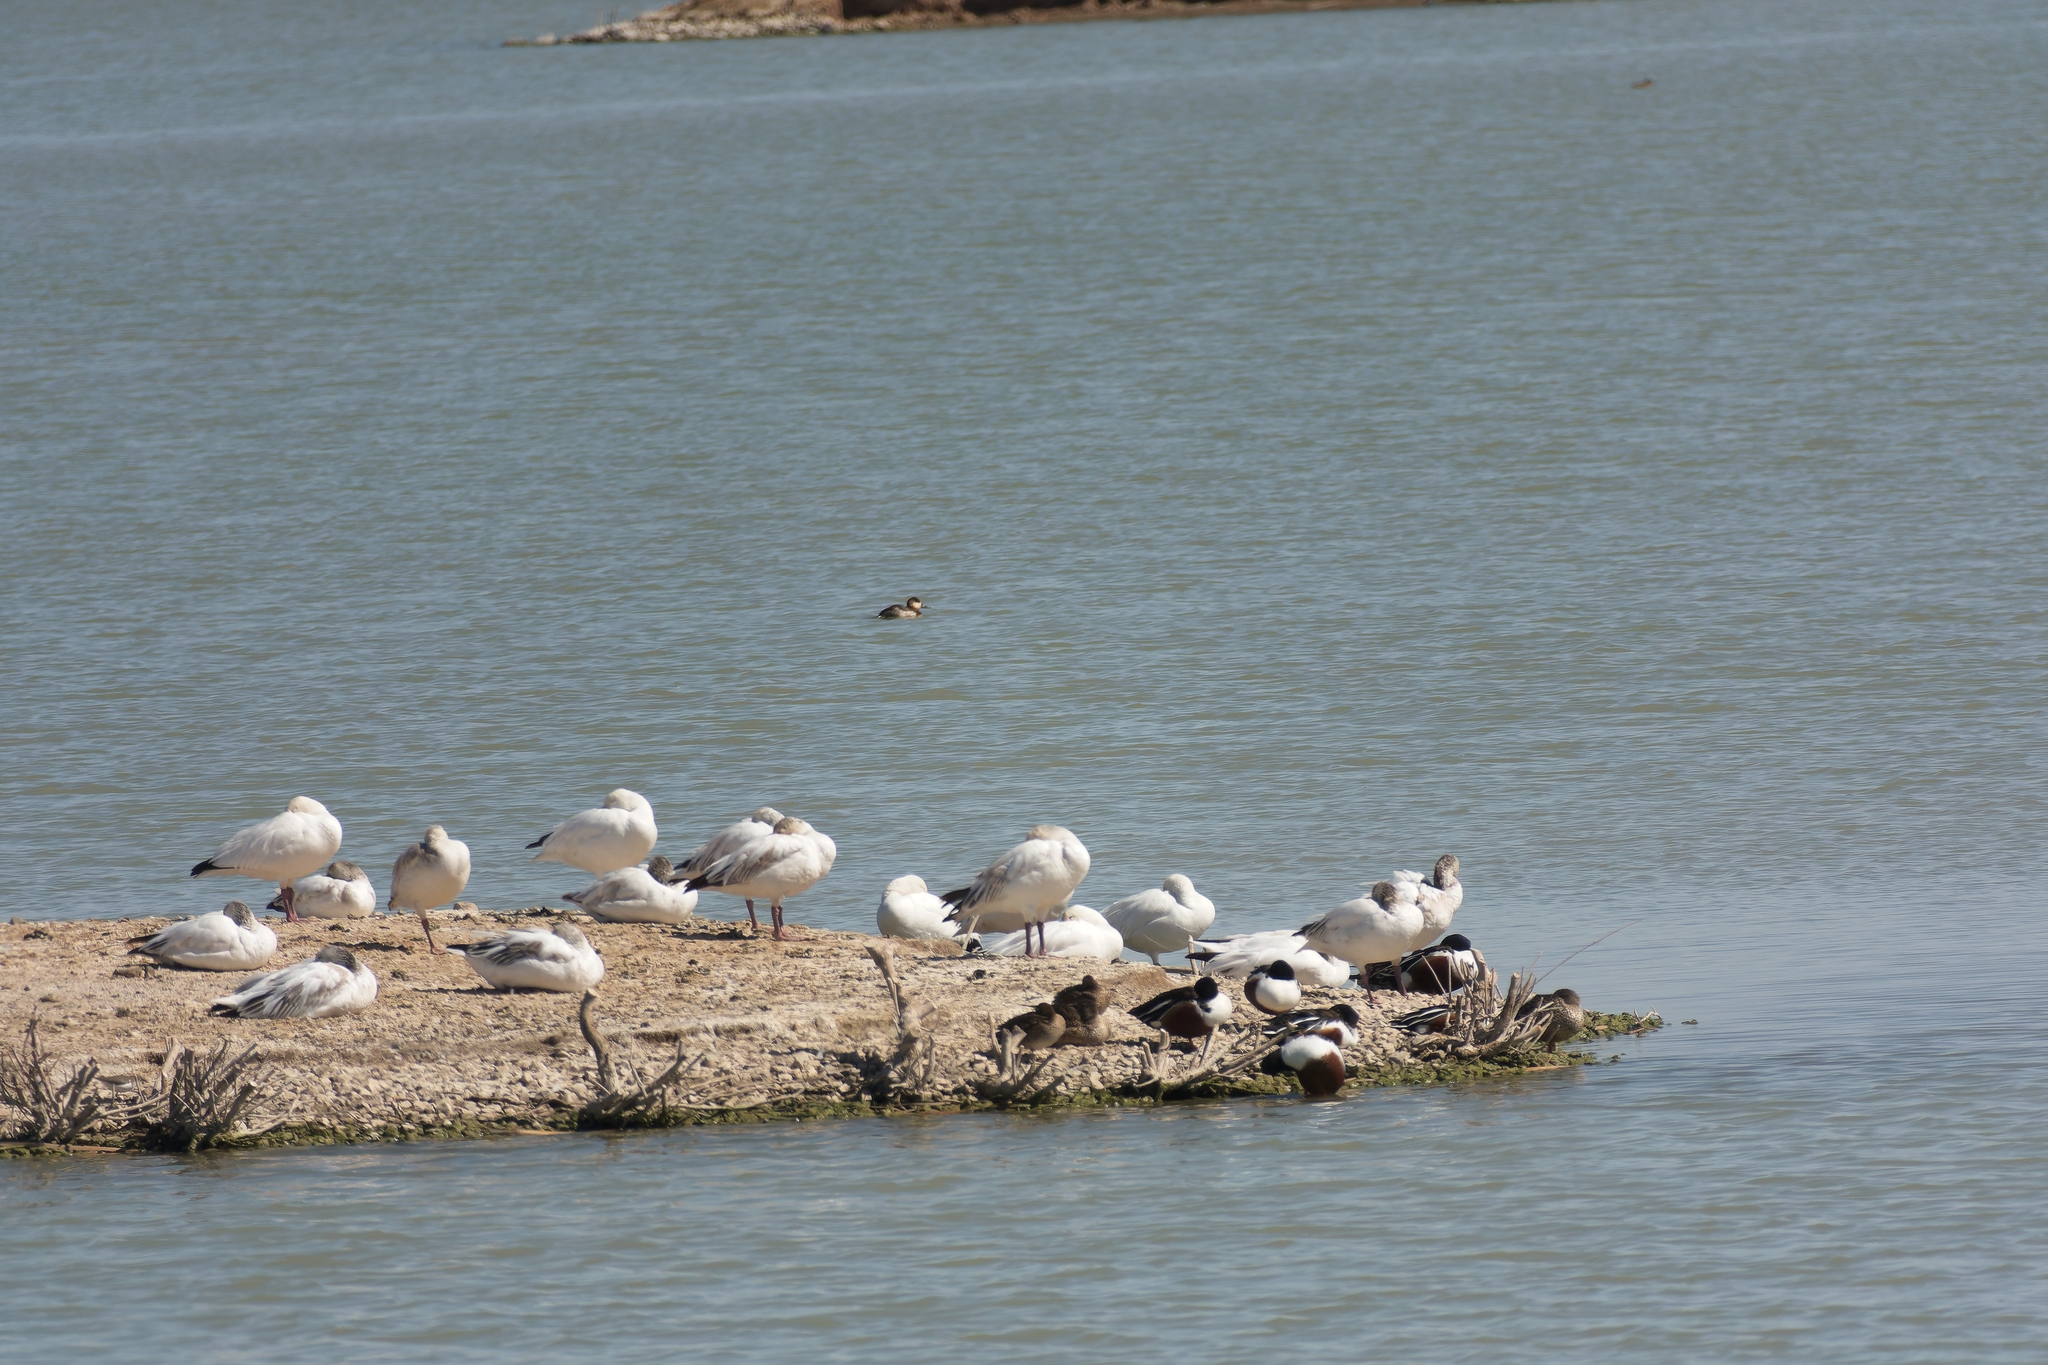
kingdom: Animalia
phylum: Chordata
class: Aves
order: Anseriformes
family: Anatidae
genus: Anser
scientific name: Anser caerulescens
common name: Snow goose
